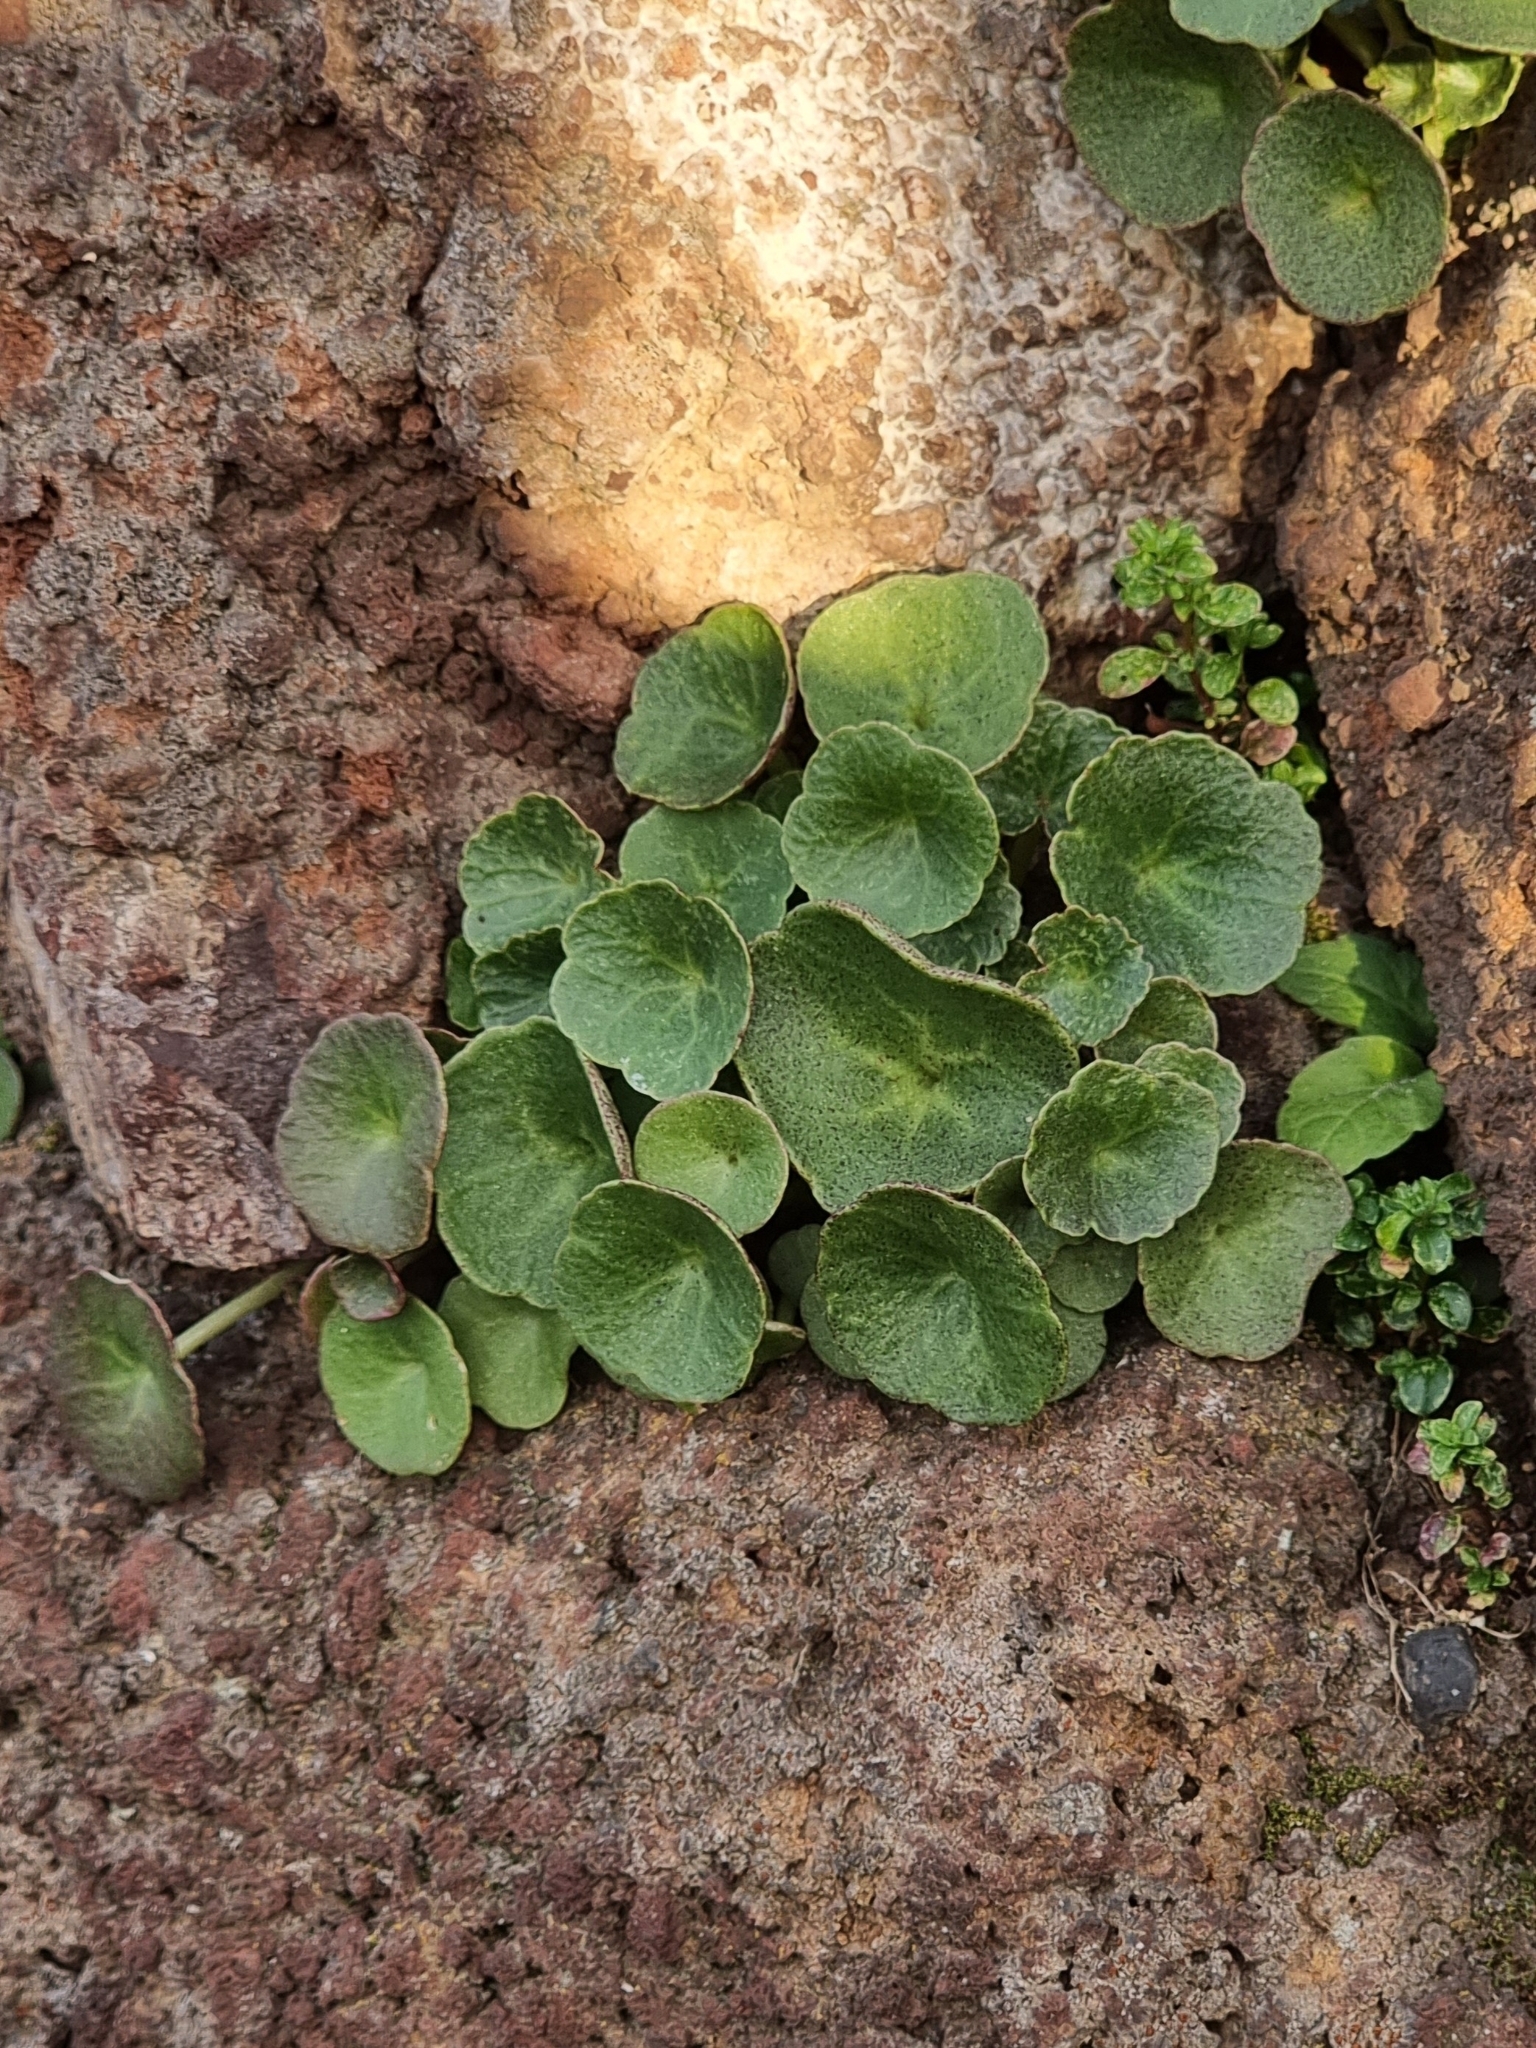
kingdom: Plantae
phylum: Tracheophyta
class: Magnoliopsida
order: Saxifragales
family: Crassulaceae
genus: Umbilicus
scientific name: Umbilicus rupestris
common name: Navelwort
